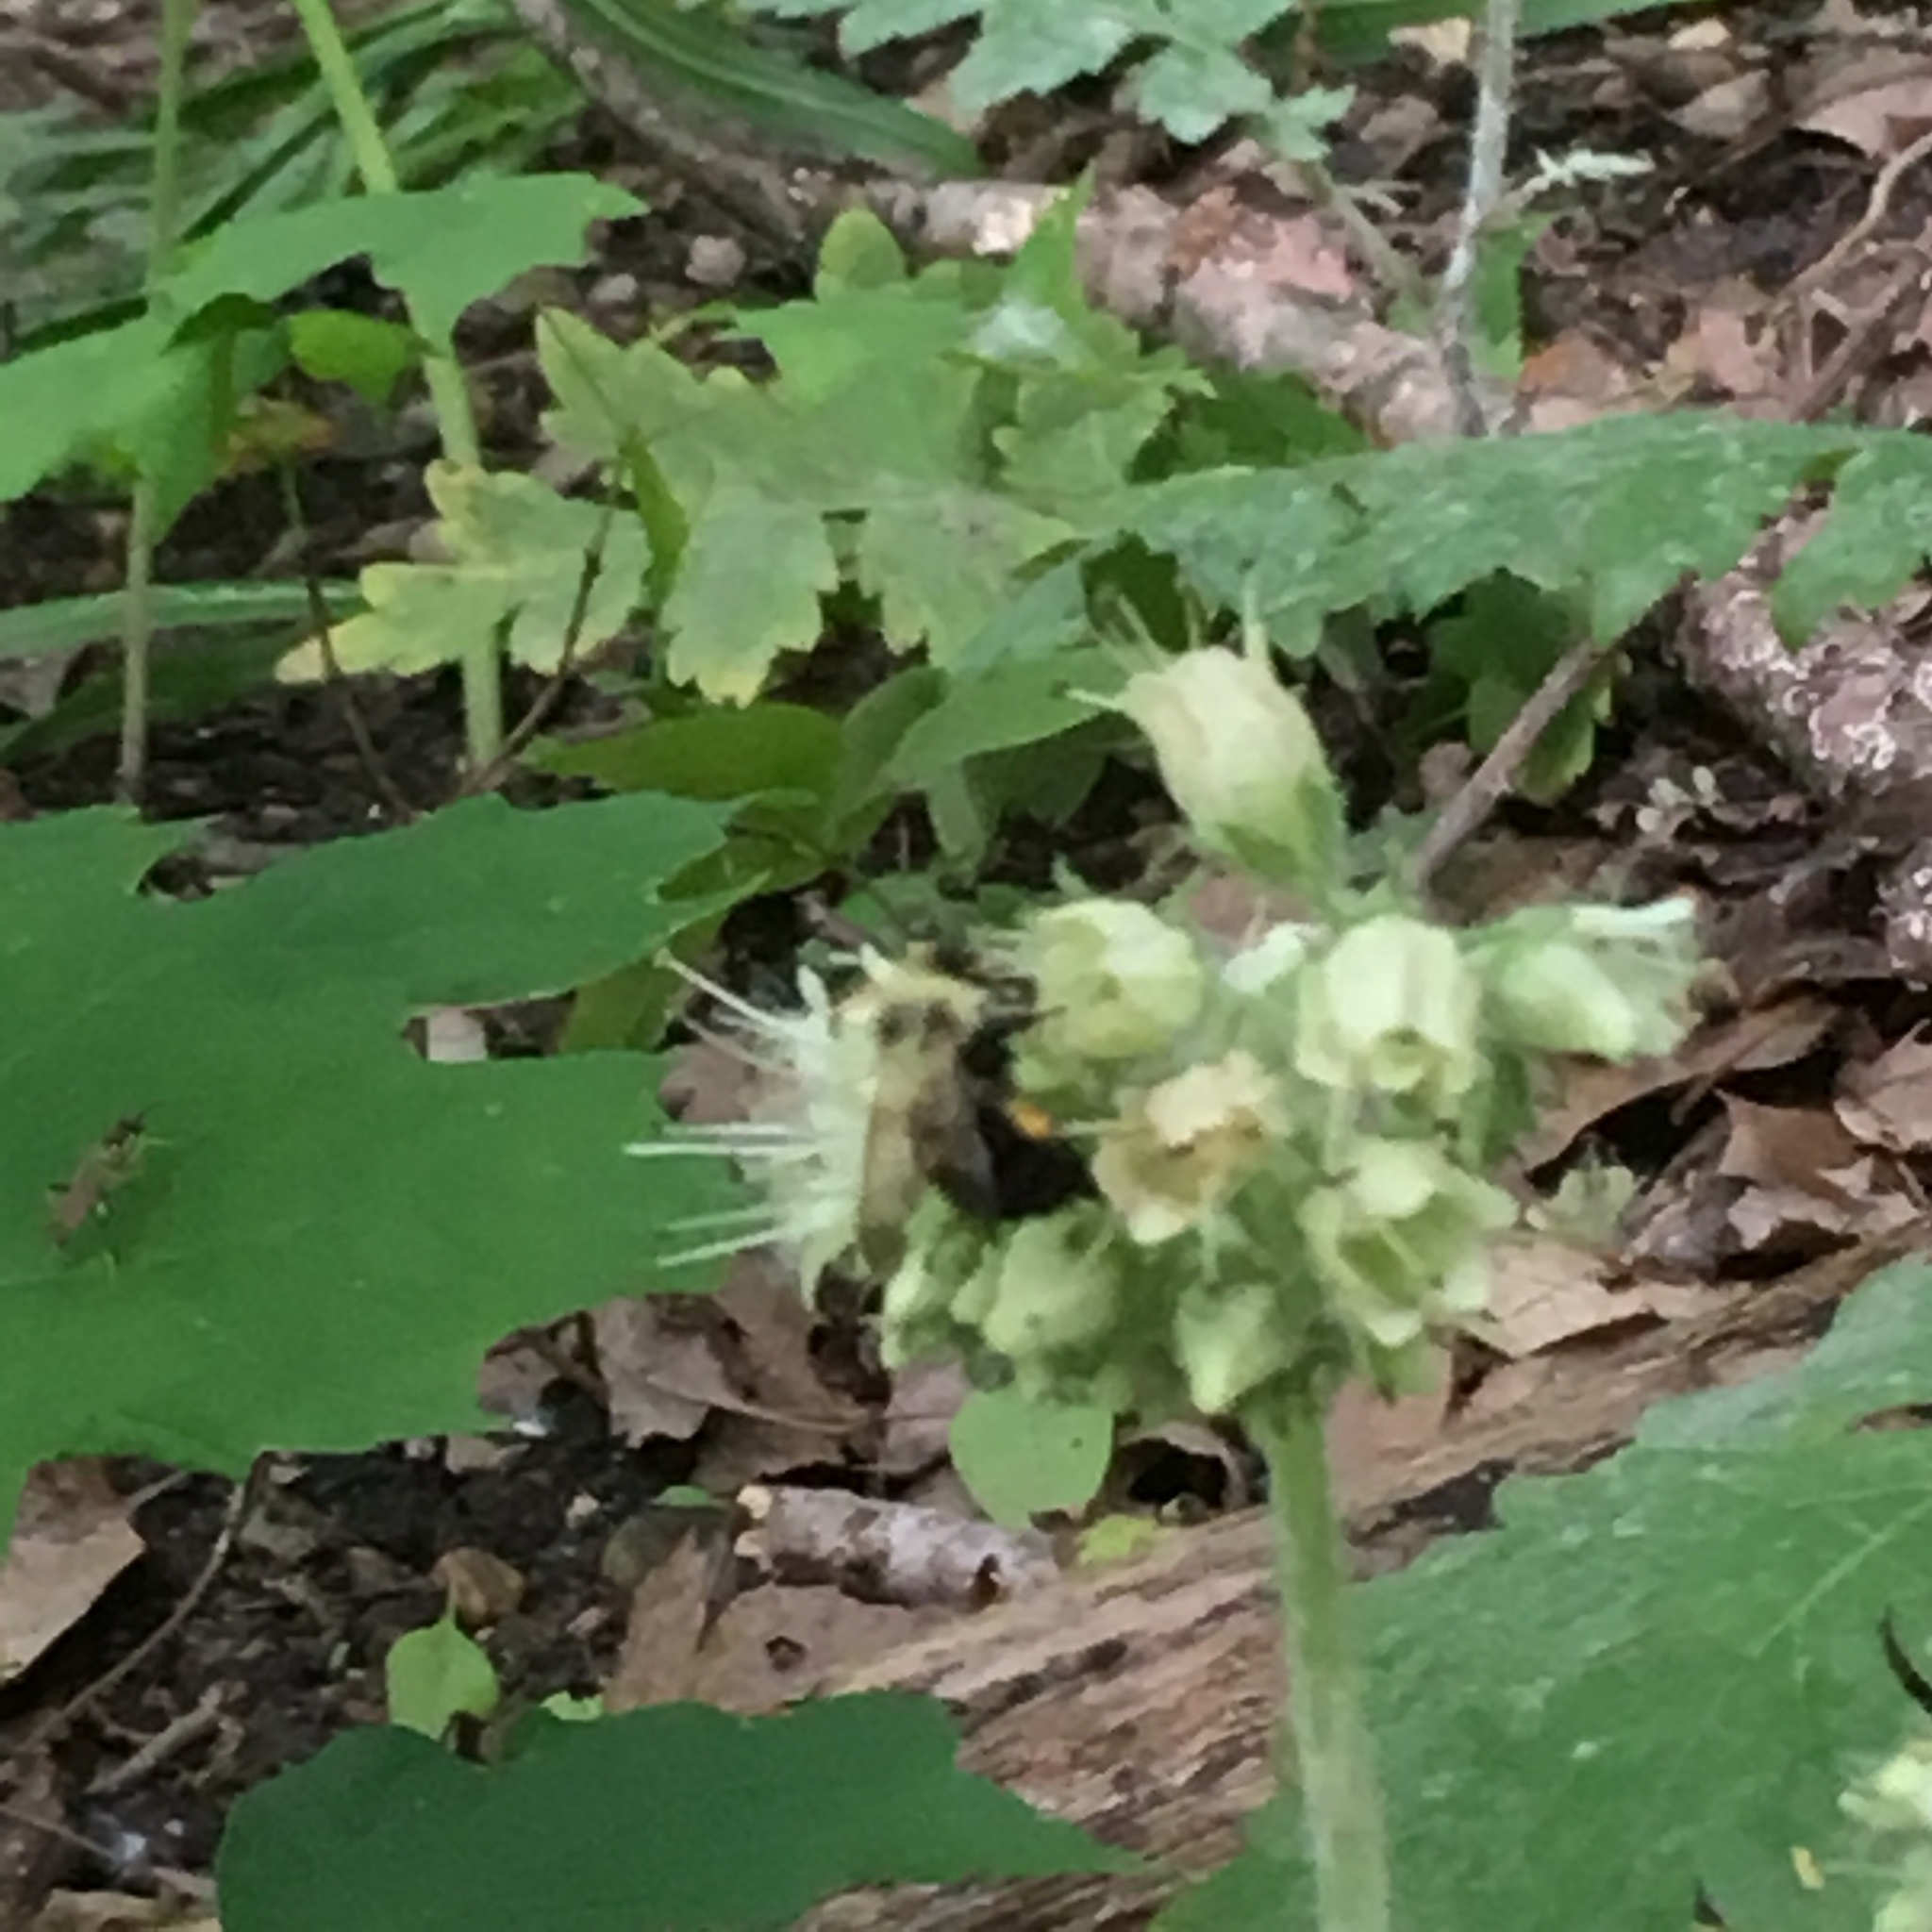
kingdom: Animalia
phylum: Arthropoda
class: Insecta
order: Hymenoptera
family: Apidae
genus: Bombus
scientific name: Bombus bimaculatus
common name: Two-spotted bumble bee
